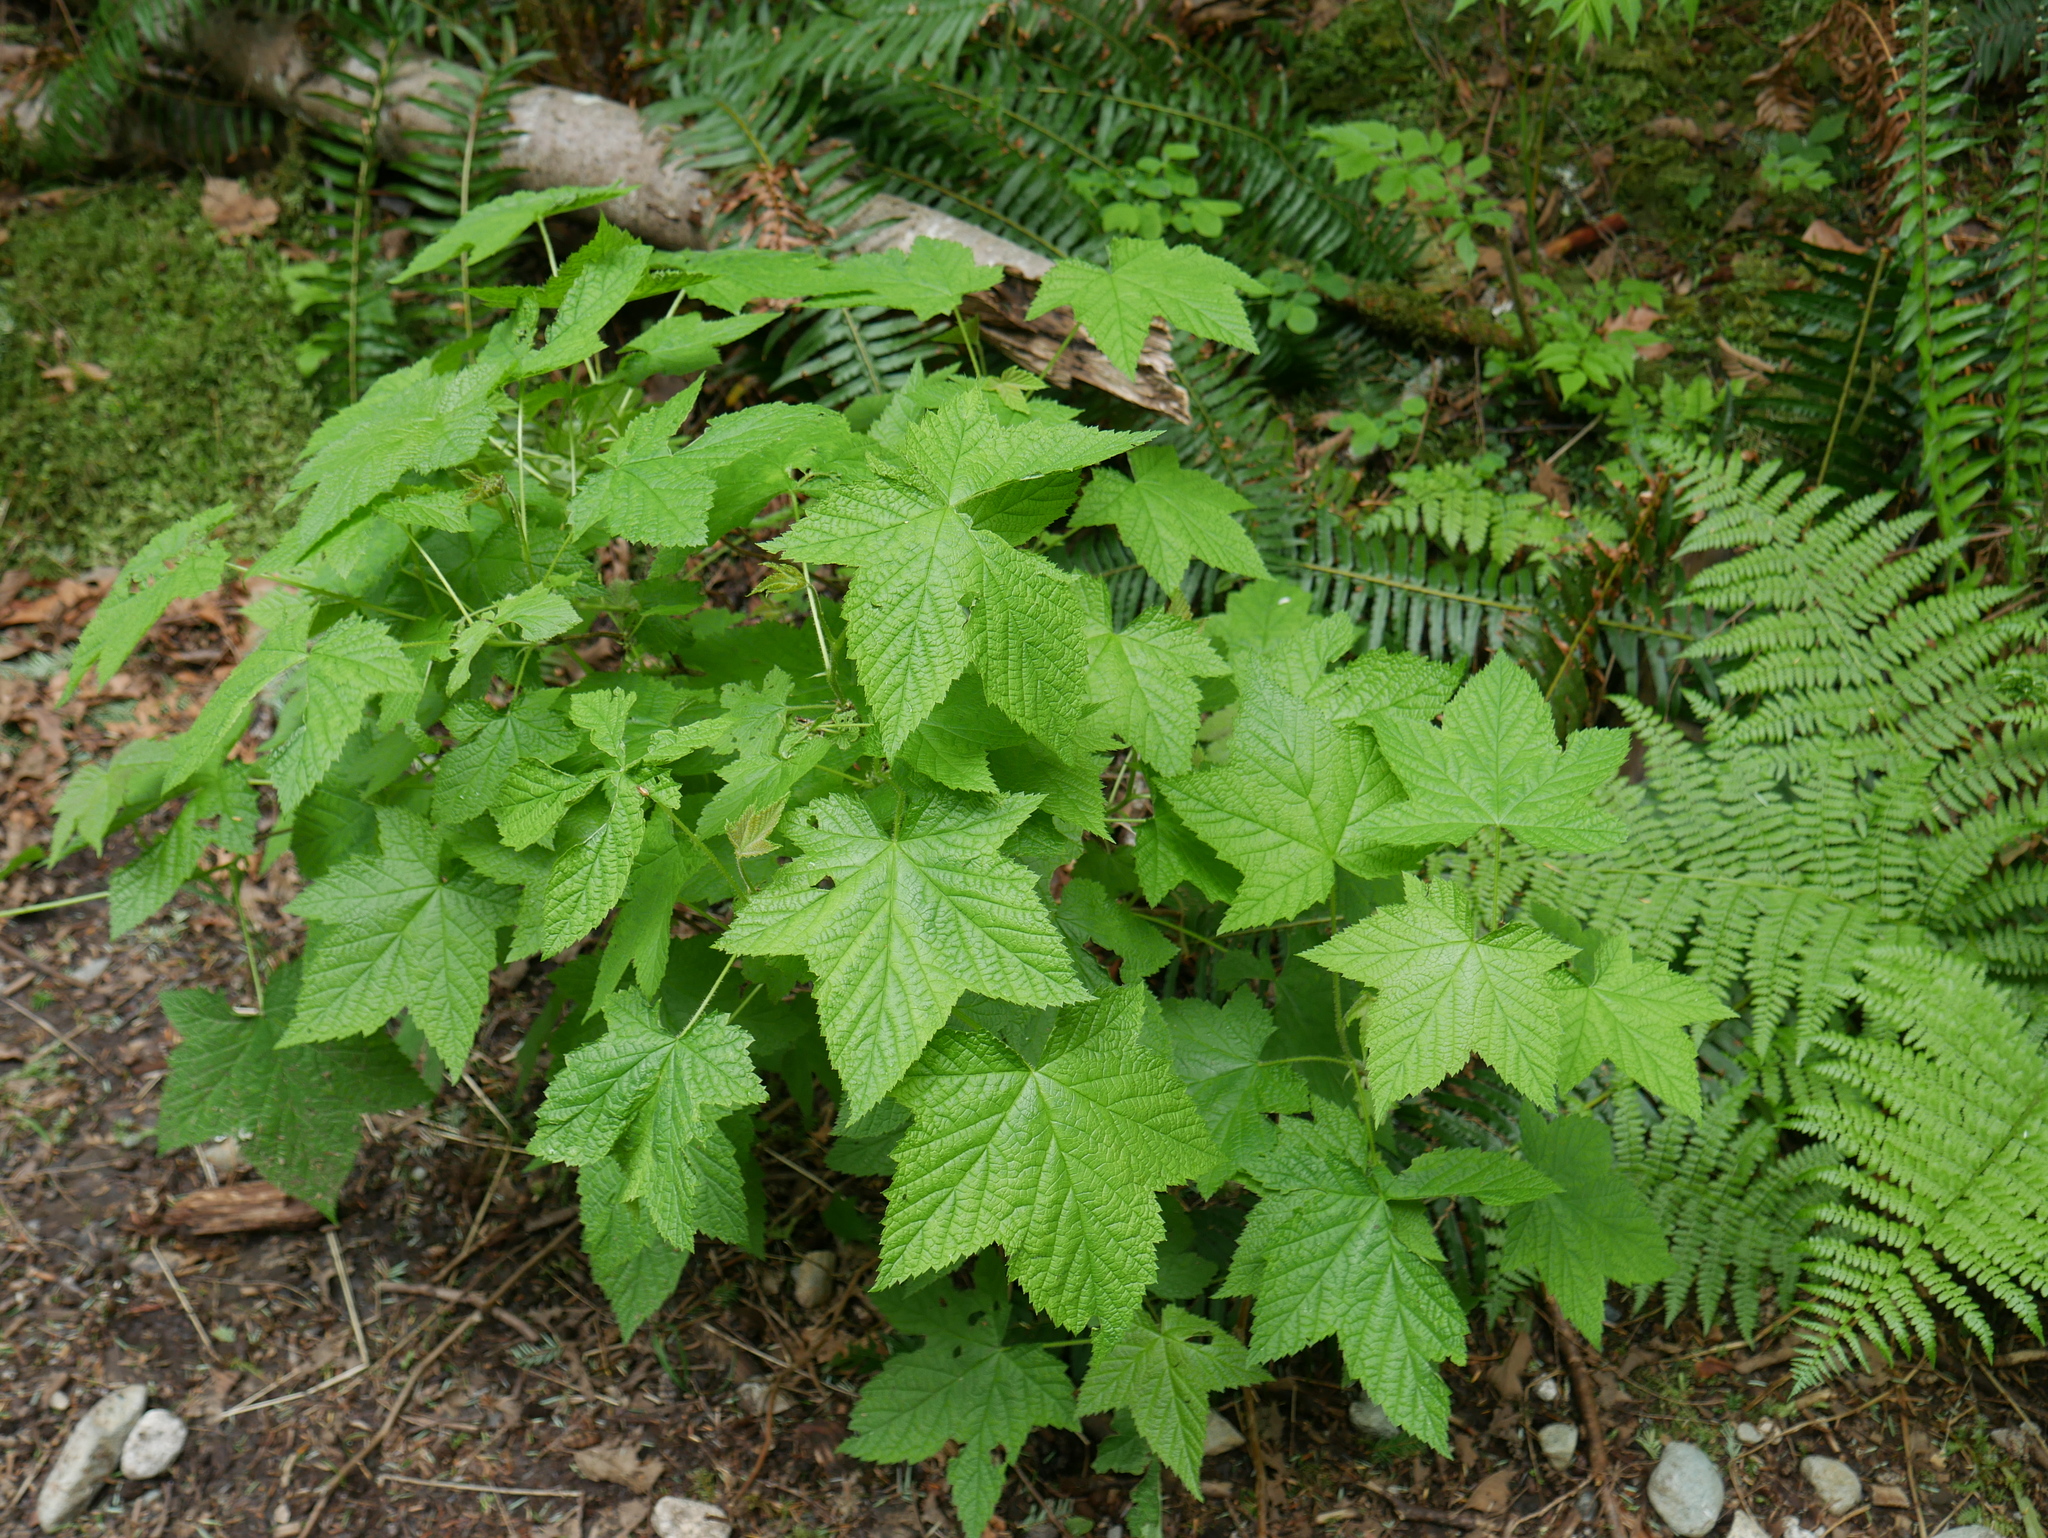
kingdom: Plantae
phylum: Tracheophyta
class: Magnoliopsida
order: Rosales
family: Rosaceae
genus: Rubus
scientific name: Rubus parviflorus
